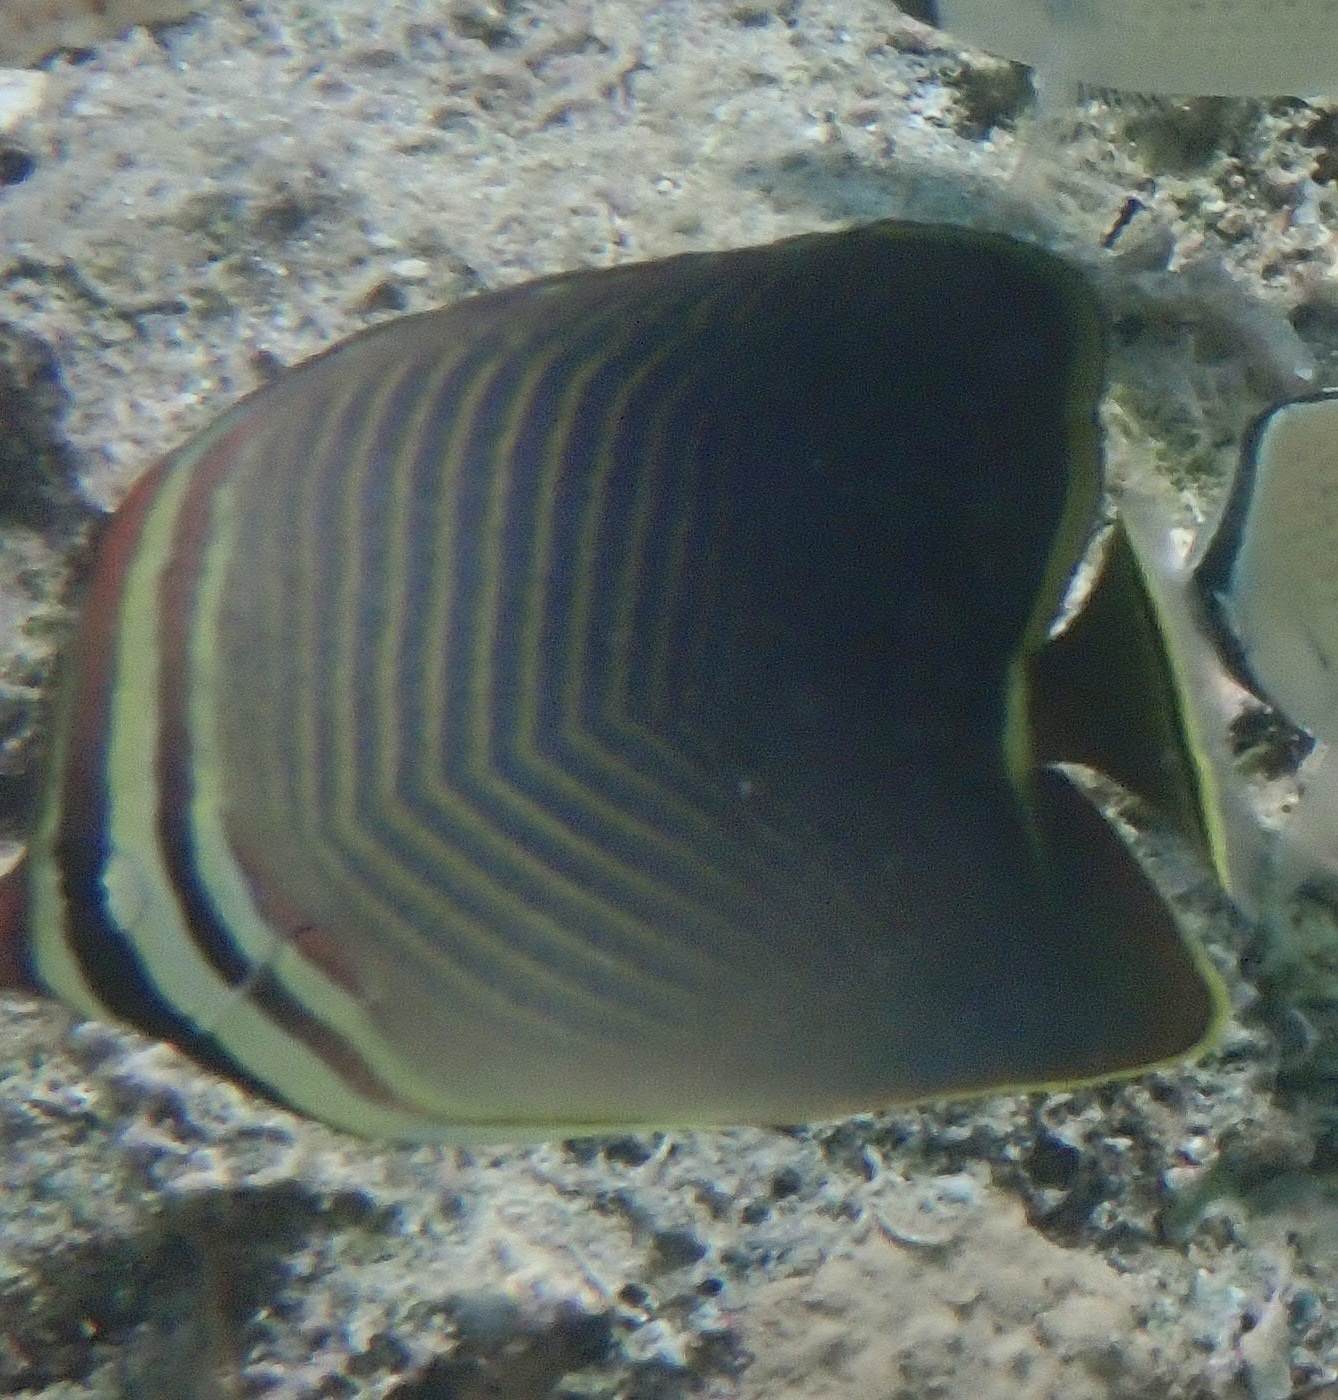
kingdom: Animalia
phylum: Chordata
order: Perciformes
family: Chaetodontidae
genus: Chaetodon
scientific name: Chaetodon baronessa
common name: Triangular butterflyfish
